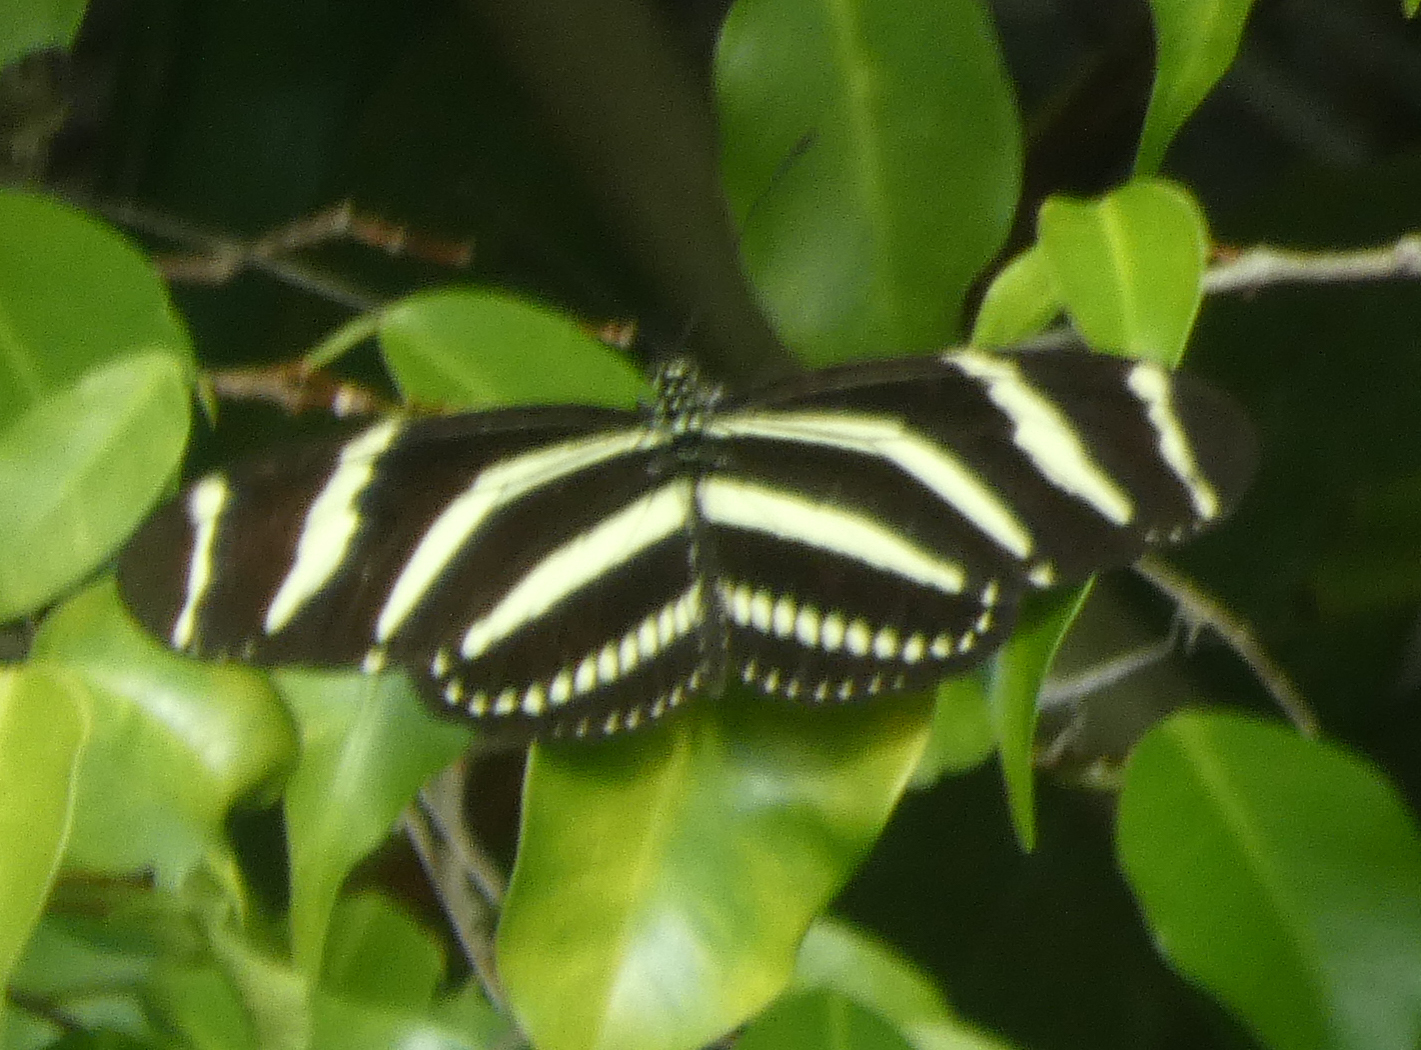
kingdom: Animalia
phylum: Arthropoda
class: Insecta
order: Lepidoptera
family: Nymphalidae
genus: Heliconius
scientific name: Heliconius charithonia
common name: Zebra long wing
